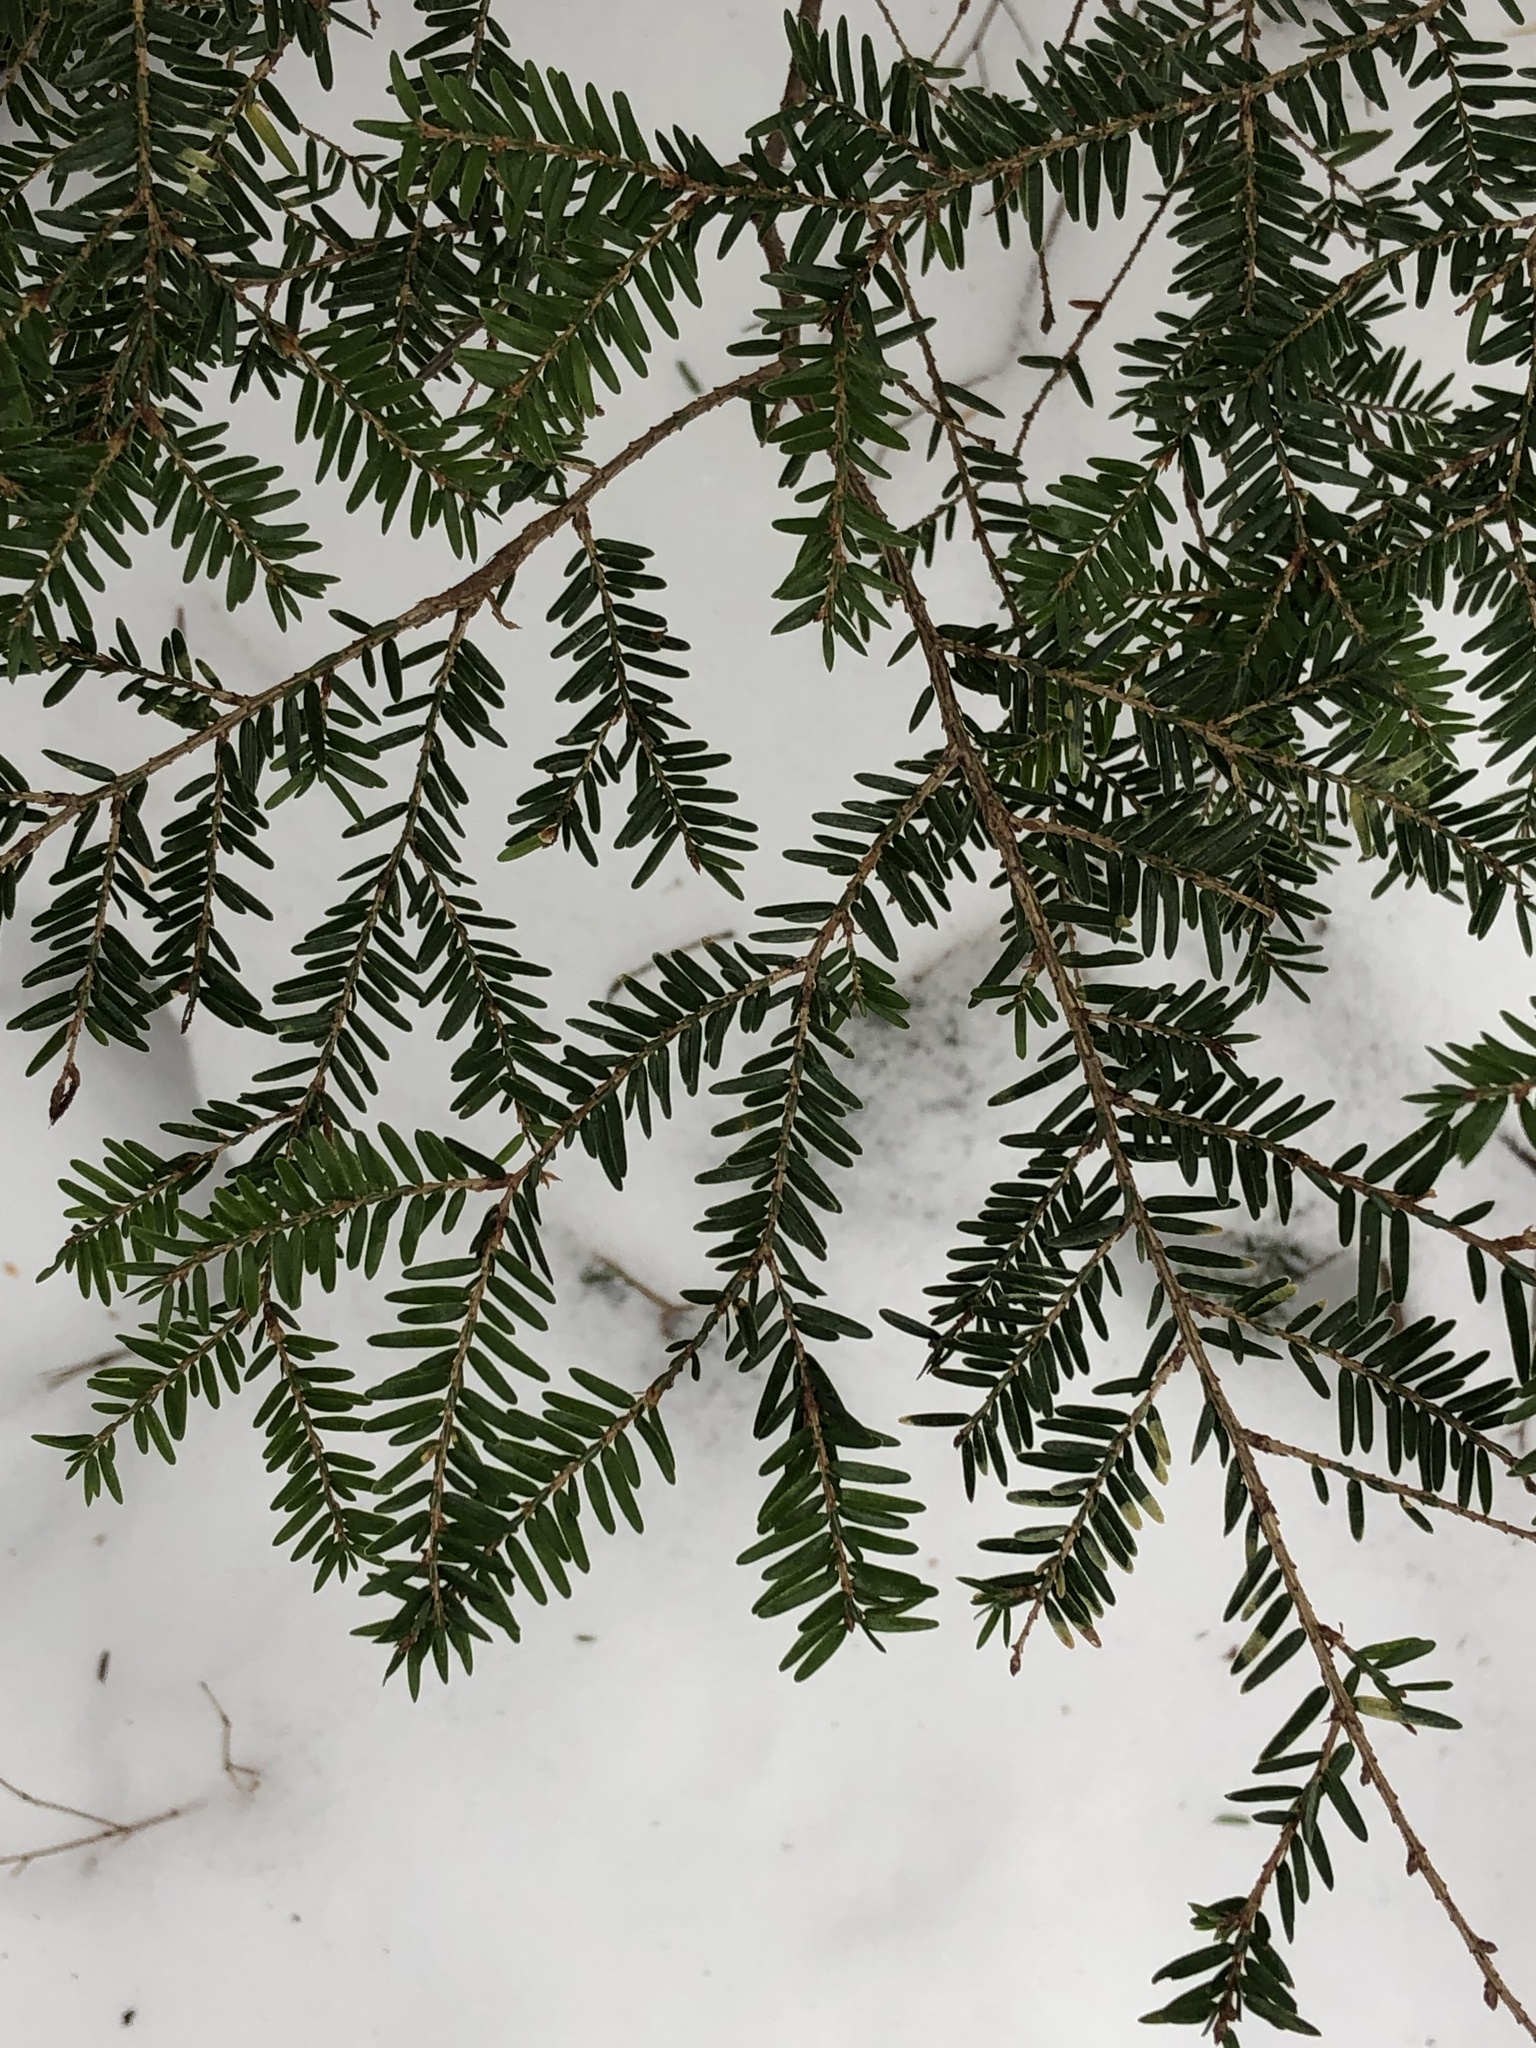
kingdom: Plantae
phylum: Tracheophyta
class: Pinopsida
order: Pinales
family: Pinaceae
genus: Tsuga
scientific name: Tsuga canadensis
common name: Eastern hemlock
